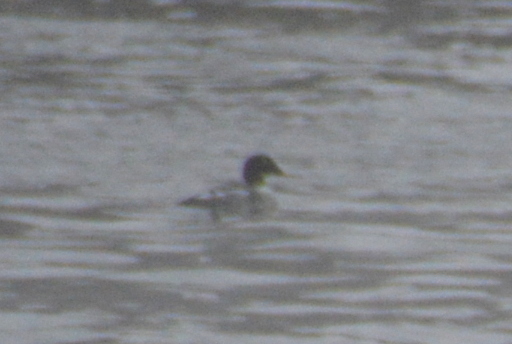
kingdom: Animalia
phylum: Chordata
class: Aves
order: Anseriformes
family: Anatidae
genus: Mergus
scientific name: Mergus merganser
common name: Common merganser
